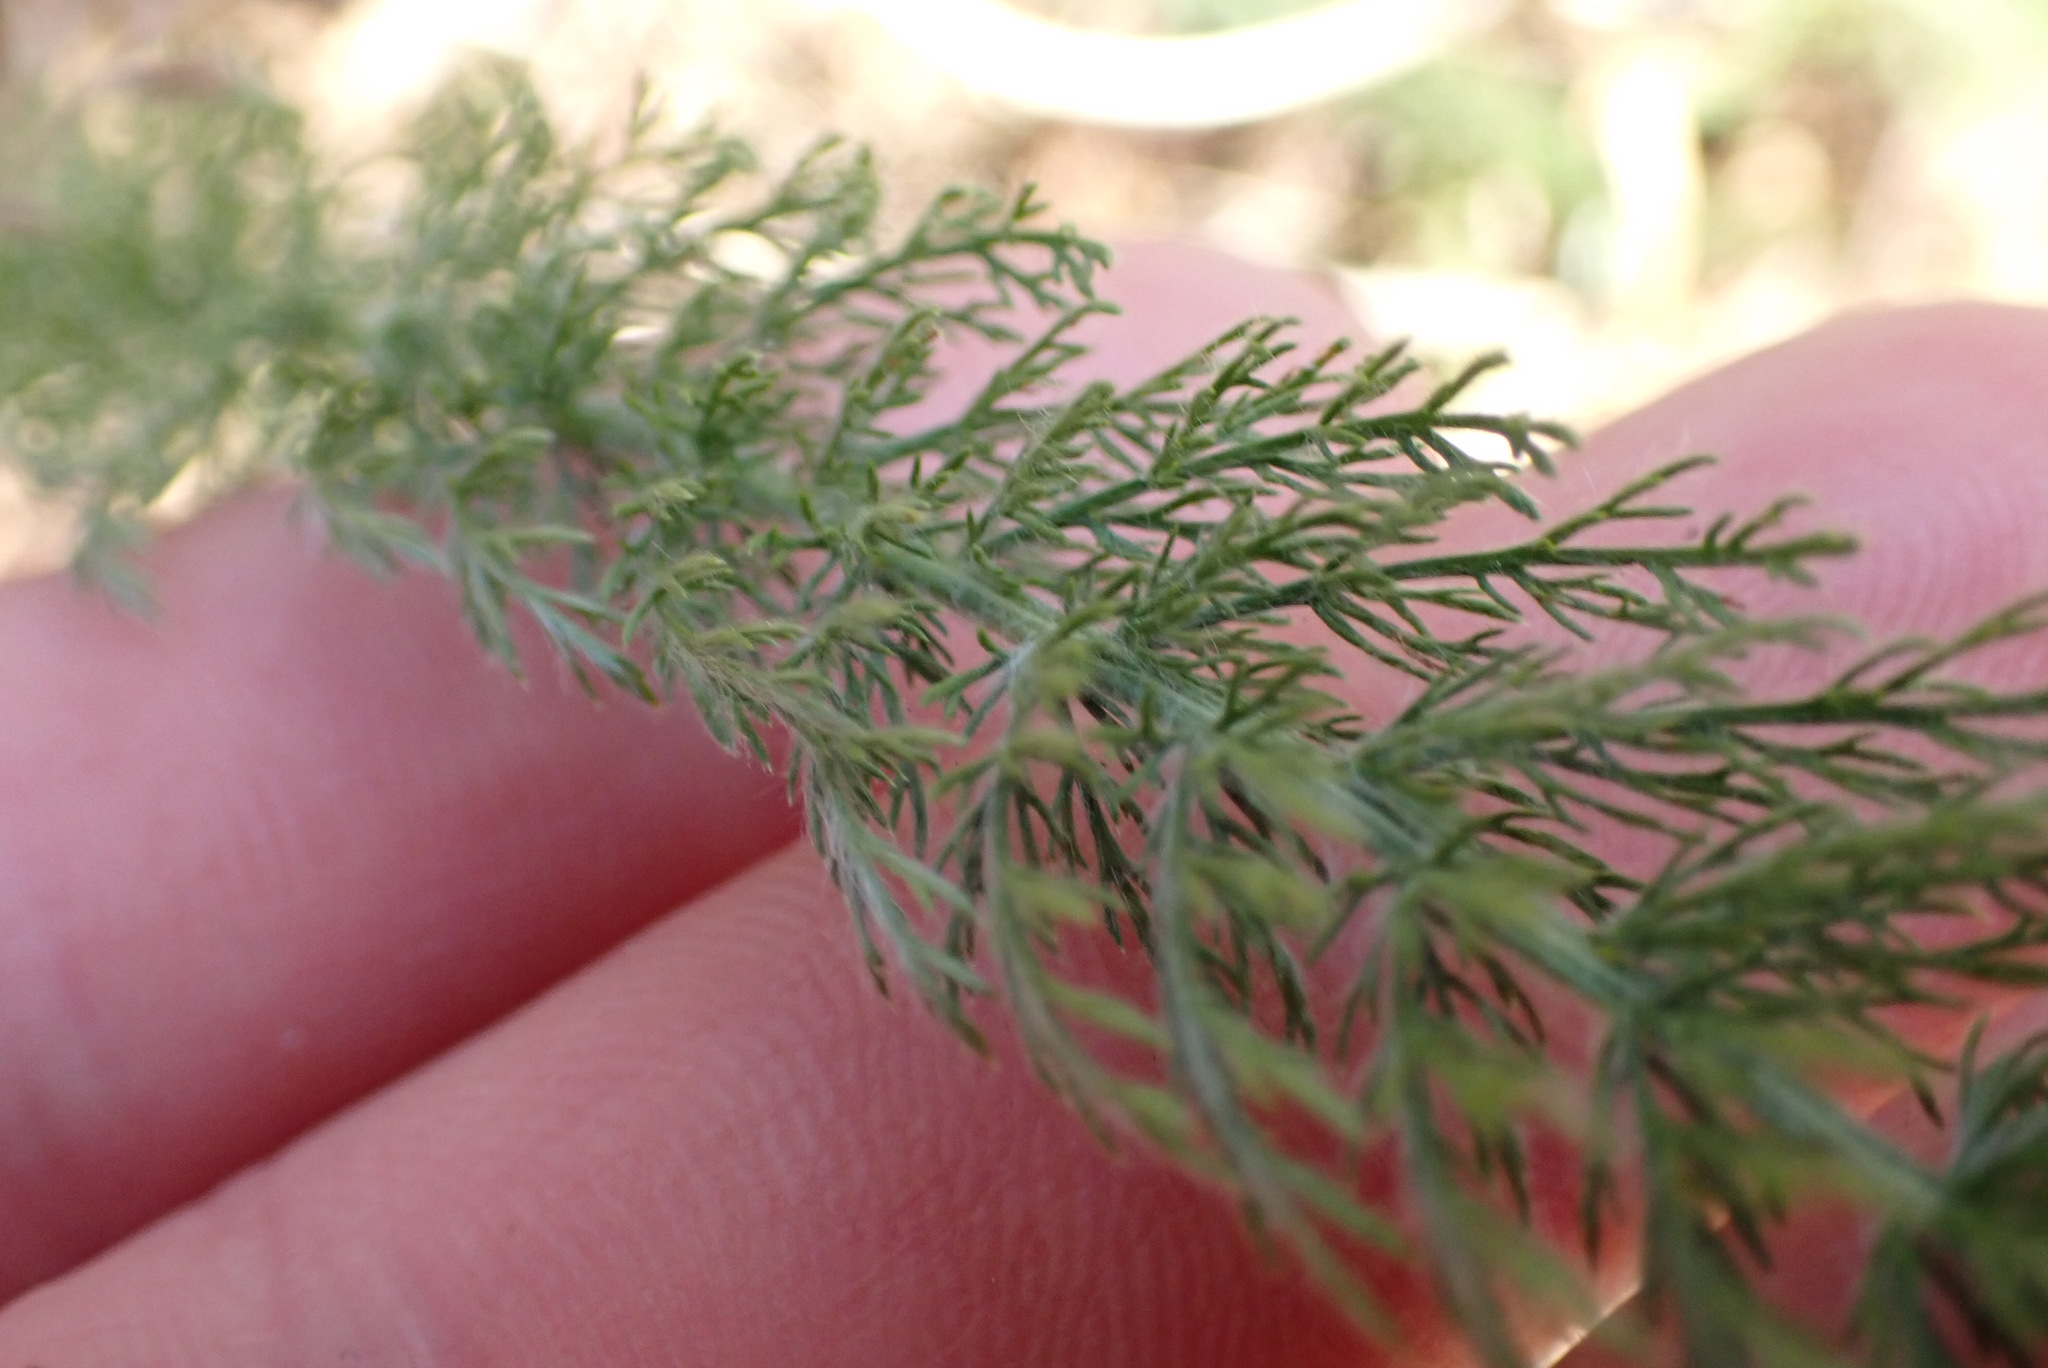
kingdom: Plantae
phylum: Tracheophyta
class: Magnoliopsida
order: Asterales
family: Asteraceae
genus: Achillea
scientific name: Achillea millefolium
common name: Yarrow
